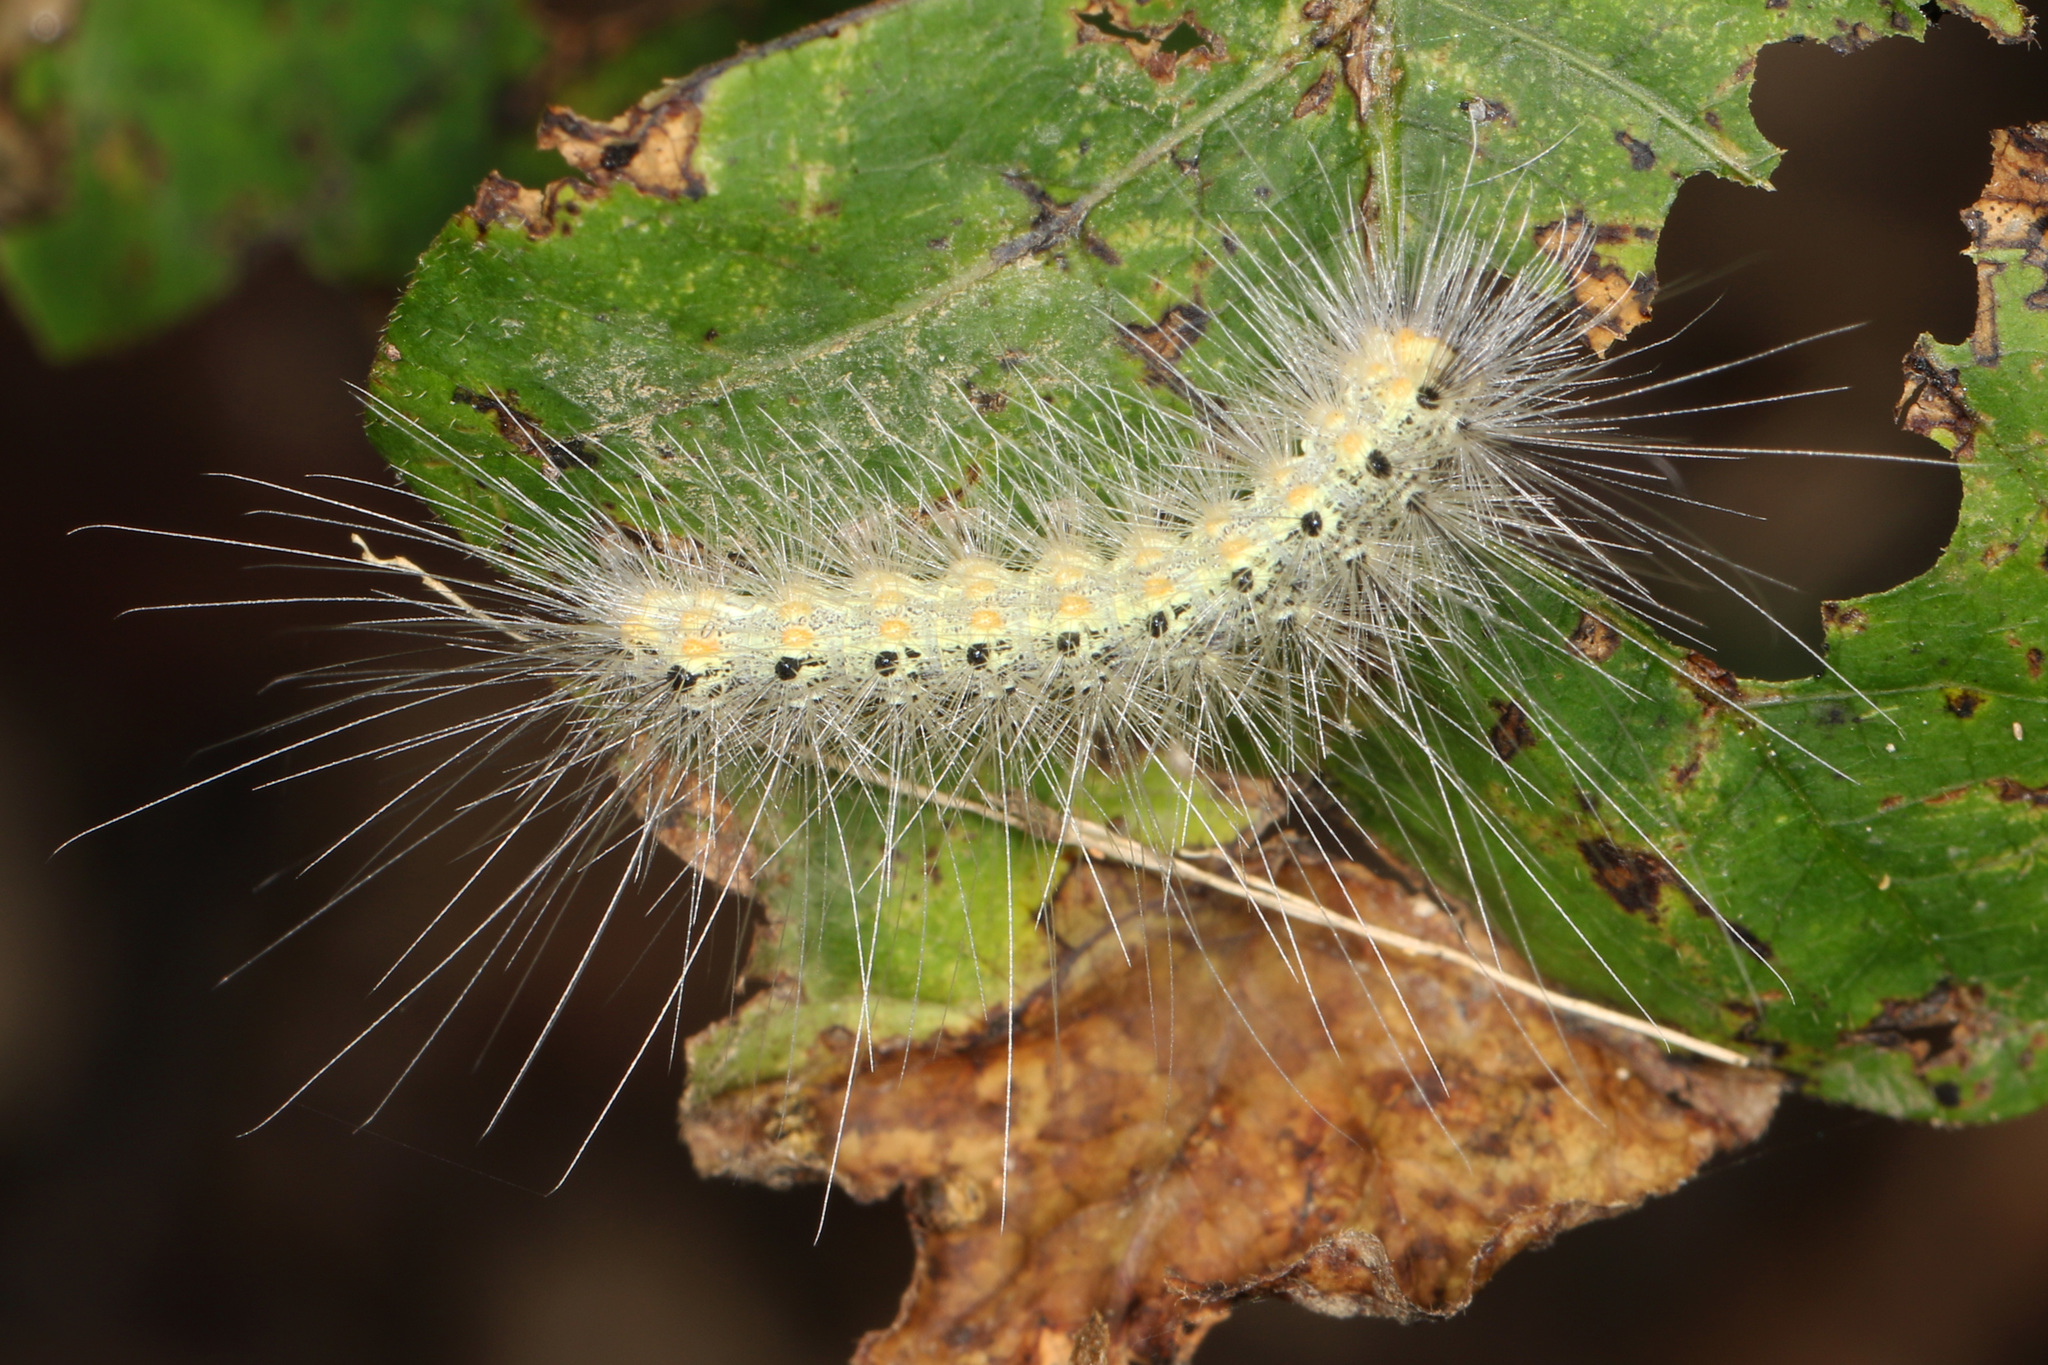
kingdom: Animalia
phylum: Arthropoda
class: Insecta
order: Lepidoptera
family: Erebidae
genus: Hyphantria
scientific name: Hyphantria cunea
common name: American white moth
